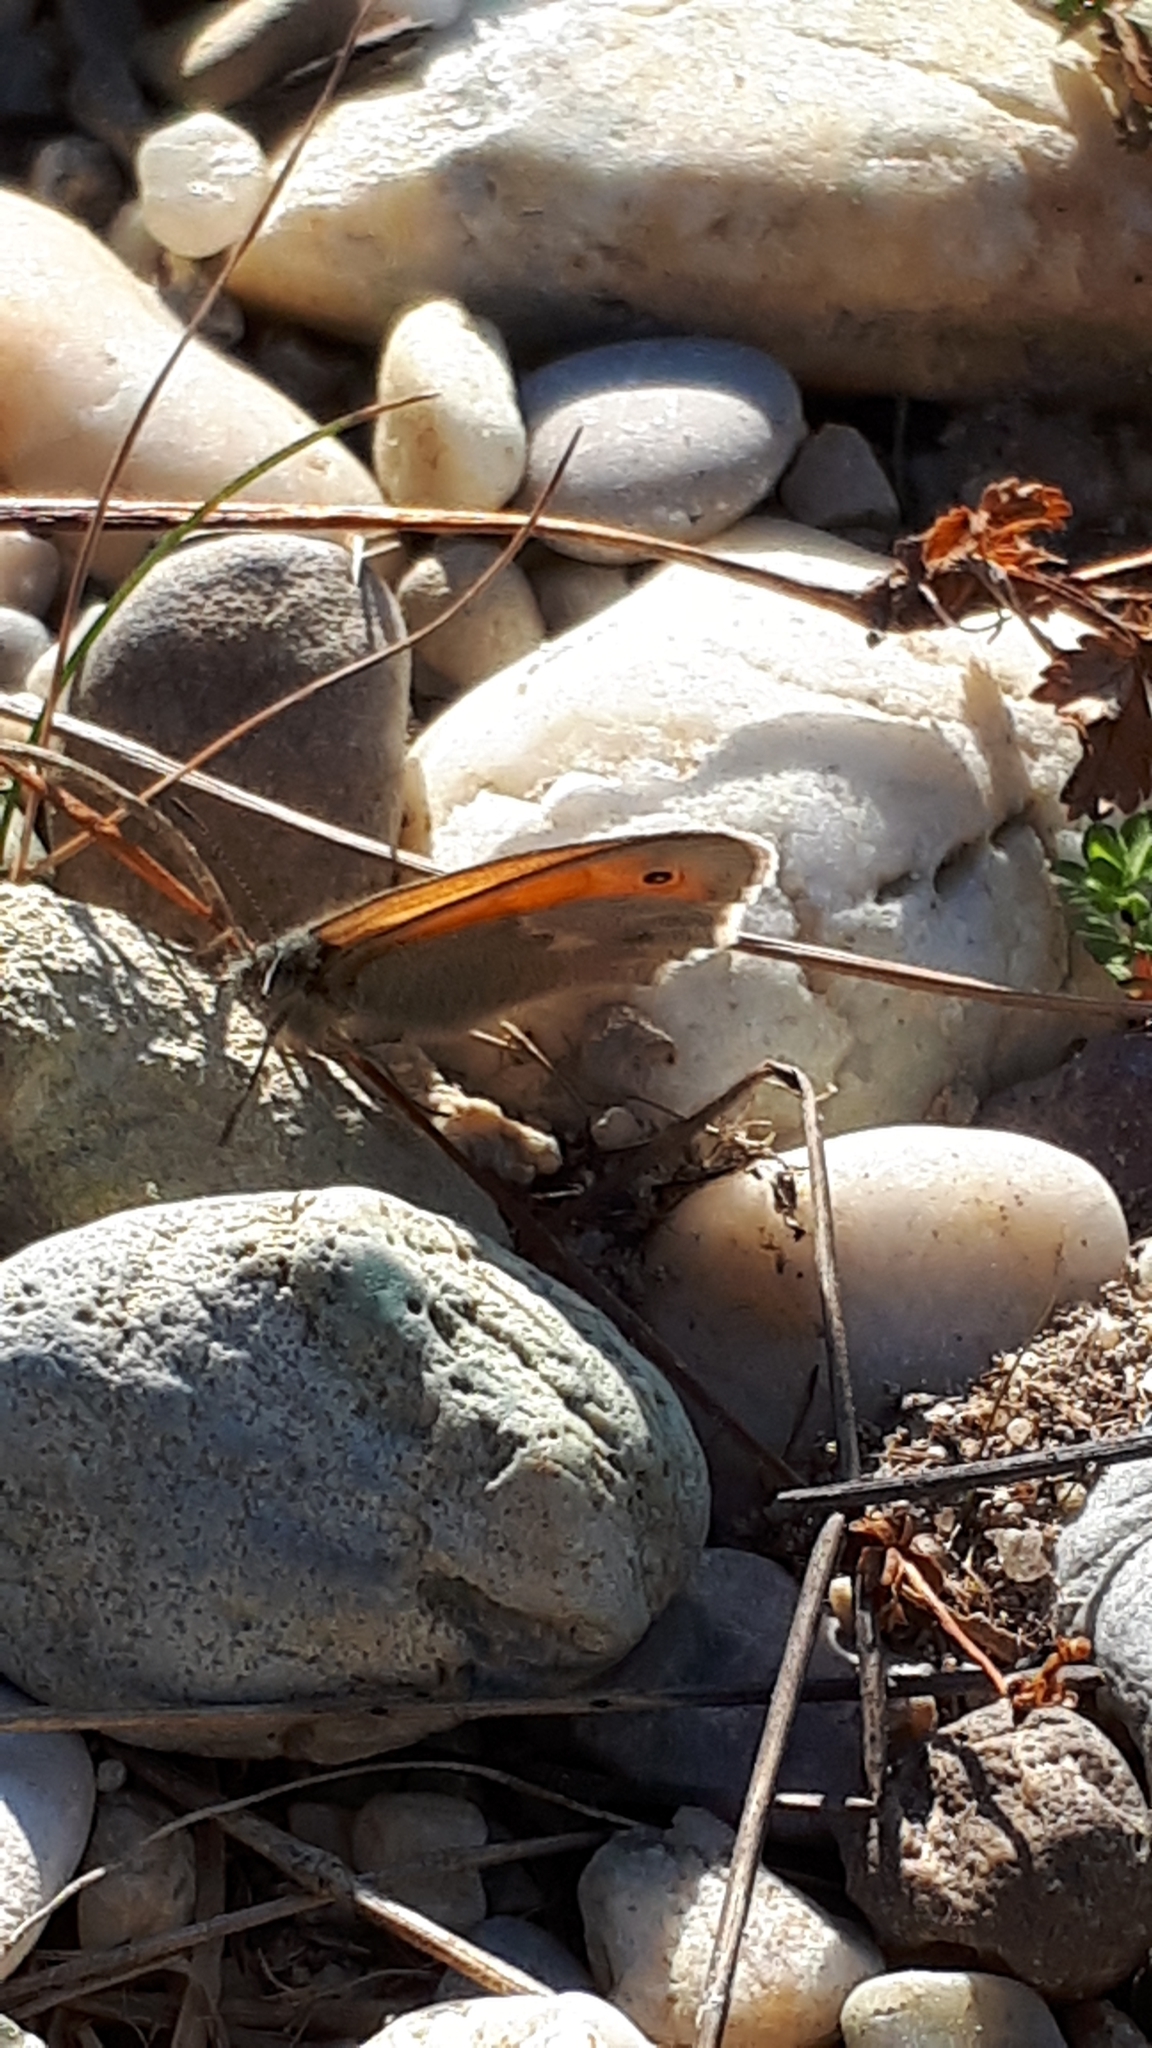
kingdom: Animalia
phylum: Arthropoda
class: Insecta
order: Lepidoptera
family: Nymphalidae
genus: Coenonympha
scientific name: Coenonympha pamphilus
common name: Small heath
